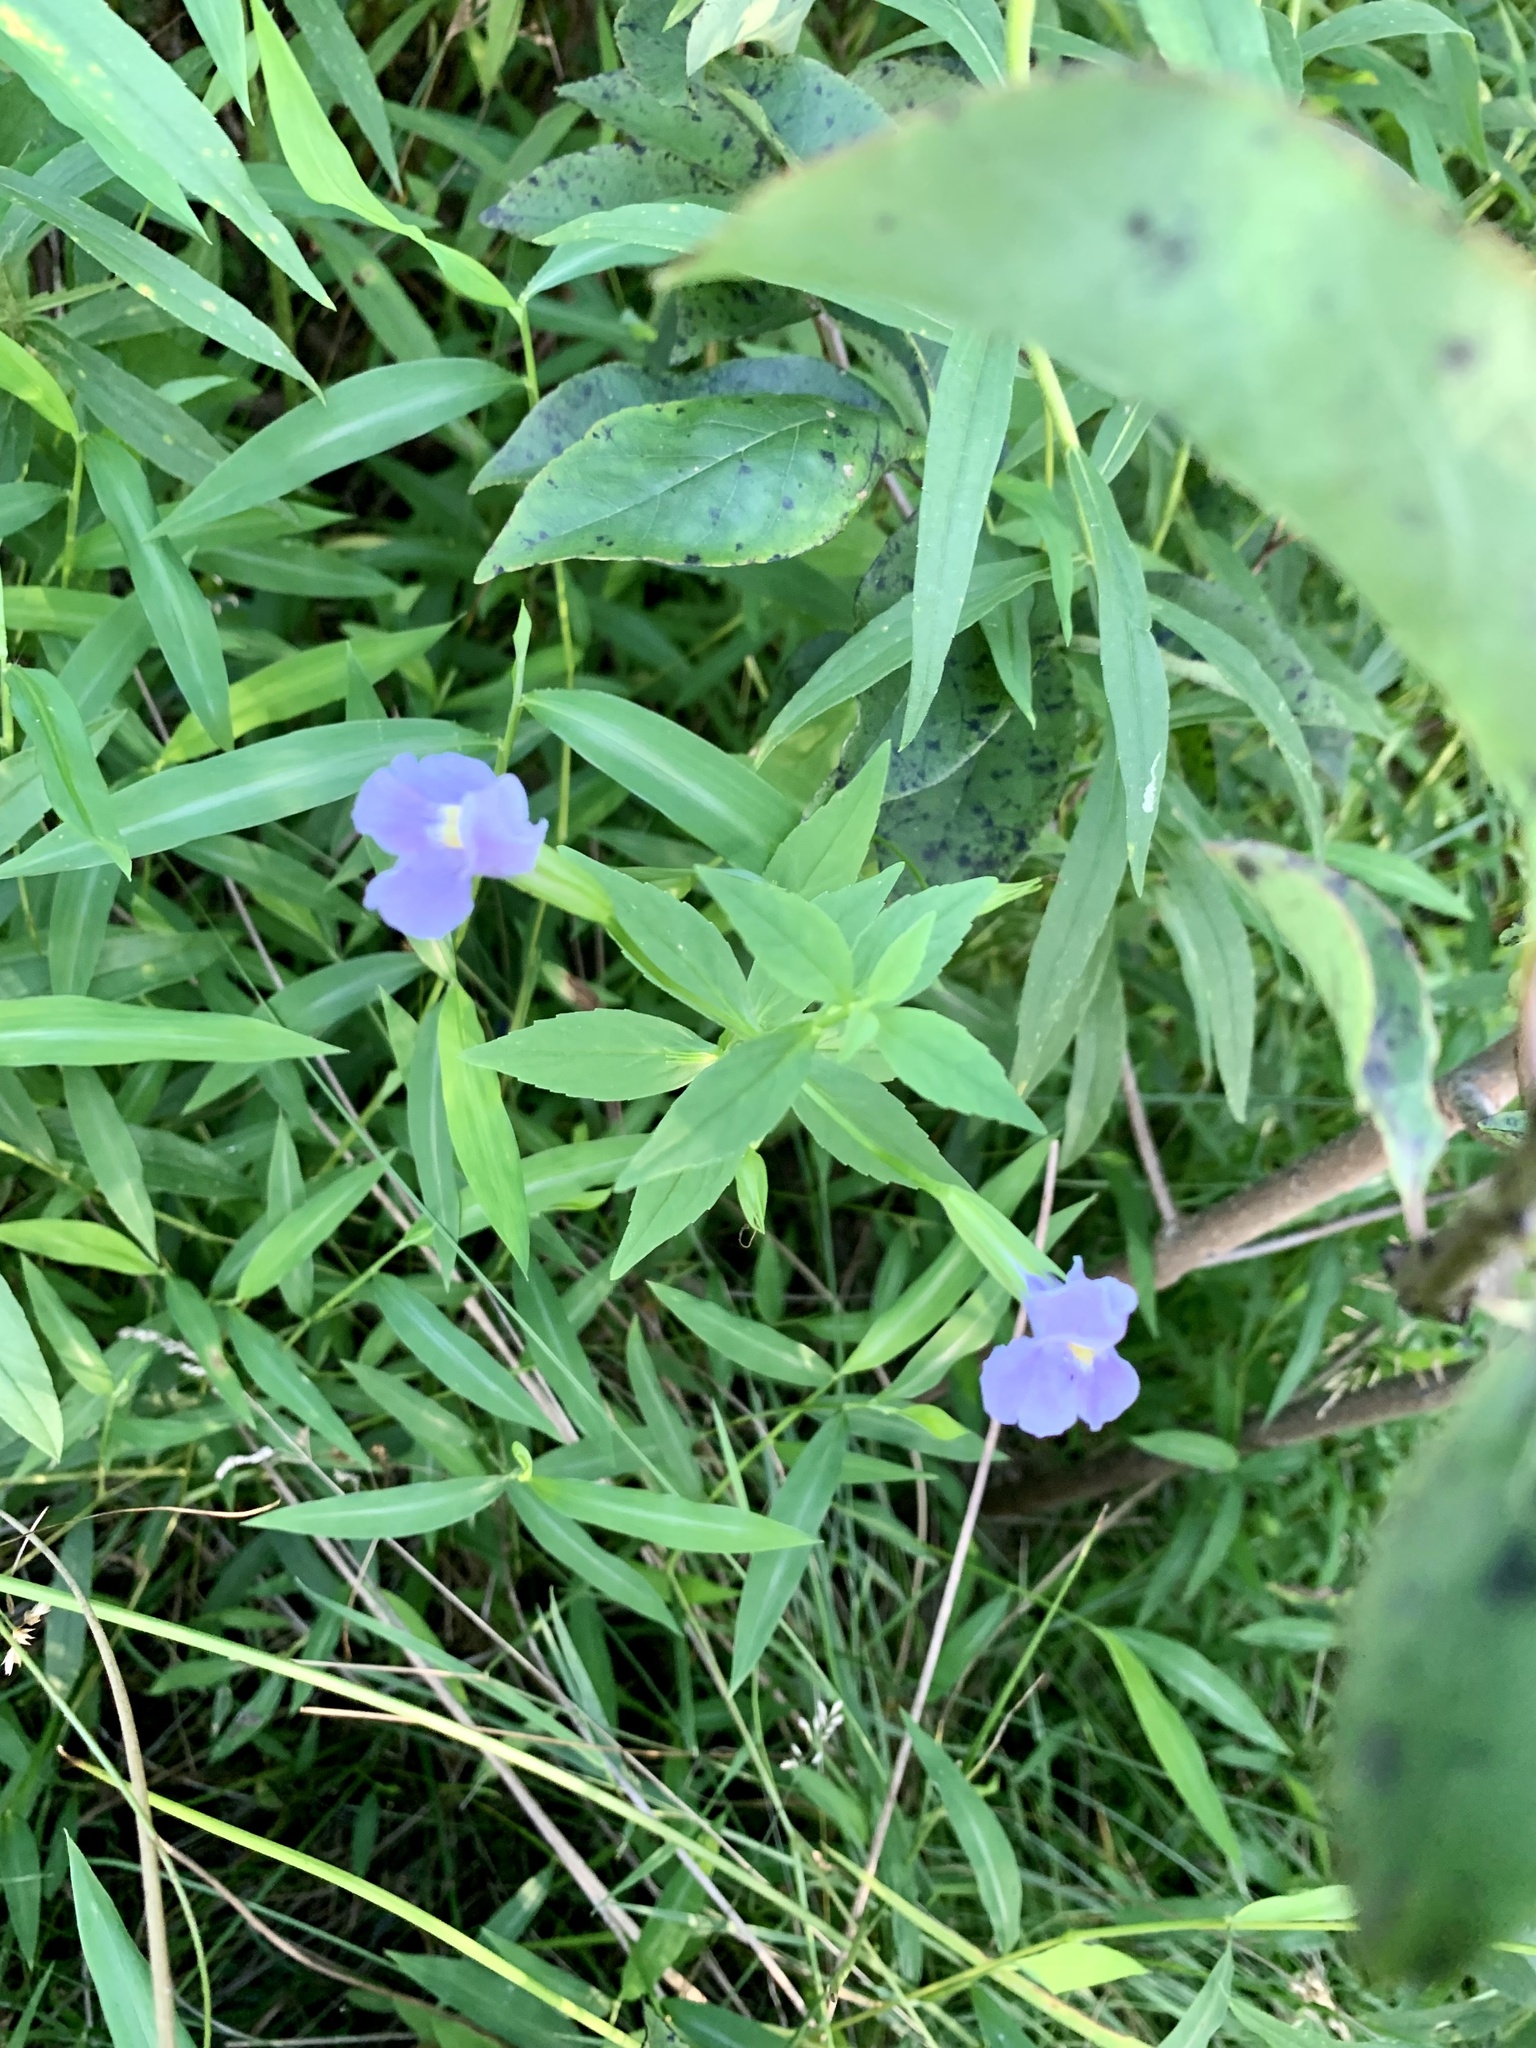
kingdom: Plantae
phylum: Tracheophyta
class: Magnoliopsida
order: Lamiales
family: Phrymaceae
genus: Mimulus
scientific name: Mimulus ringens
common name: Allegheny monkeyflower
